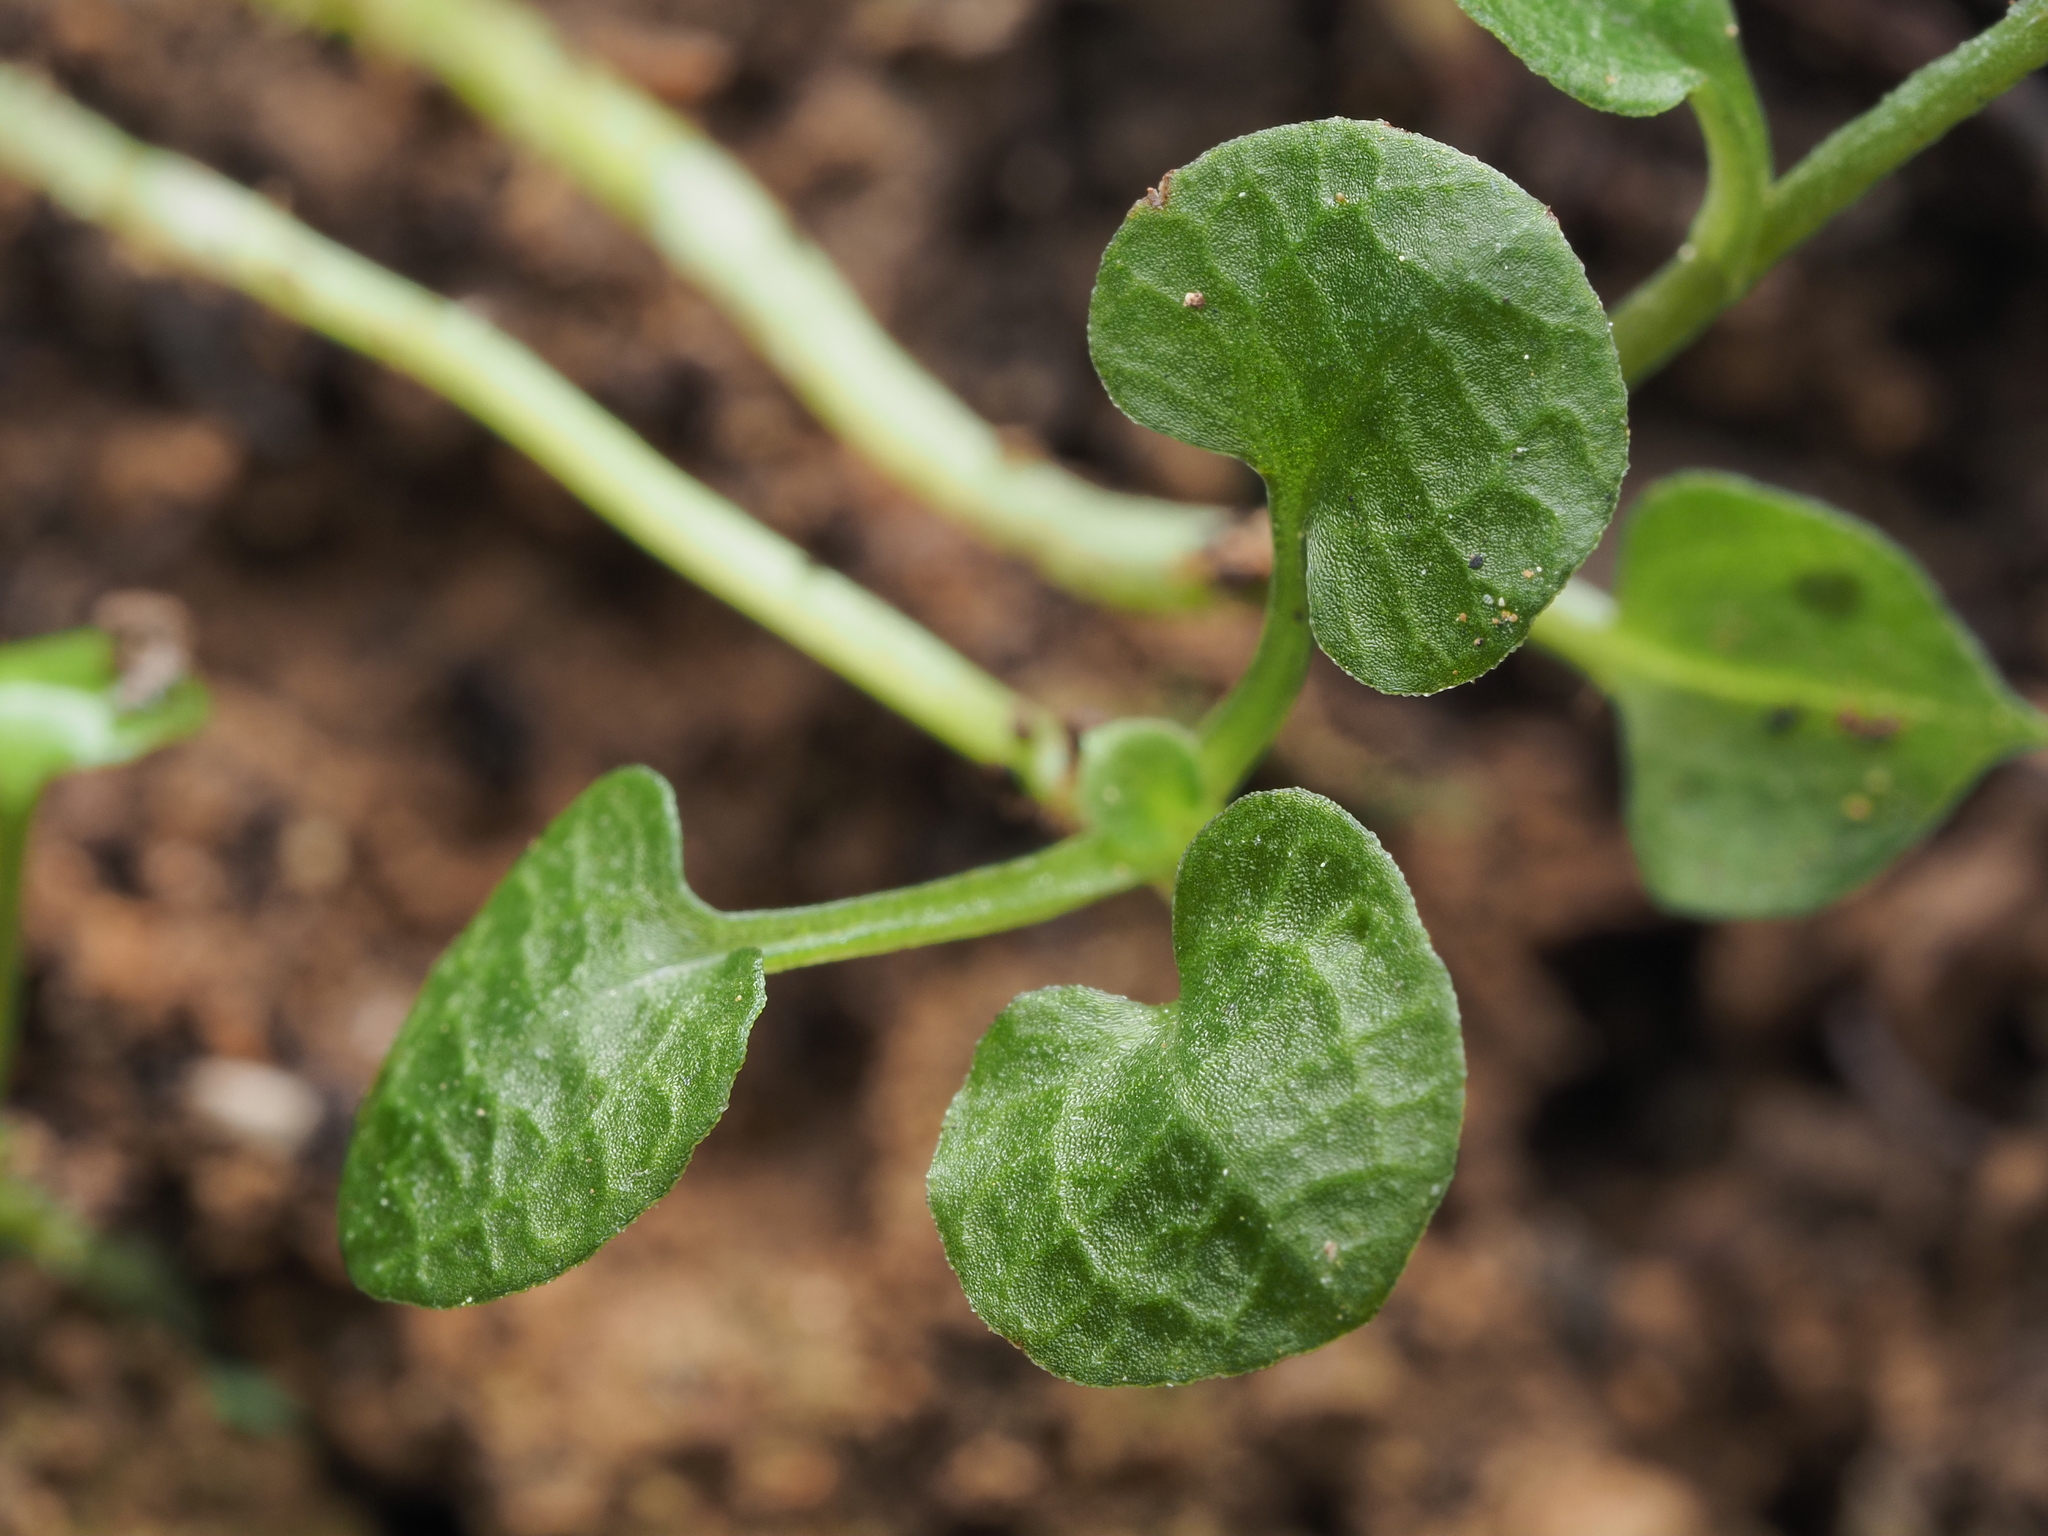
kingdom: Plantae
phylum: Tracheophyta
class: Liliopsida
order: Asparagales
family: Orchidaceae
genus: Pterostylis
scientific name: Pterostylis trullifolia
